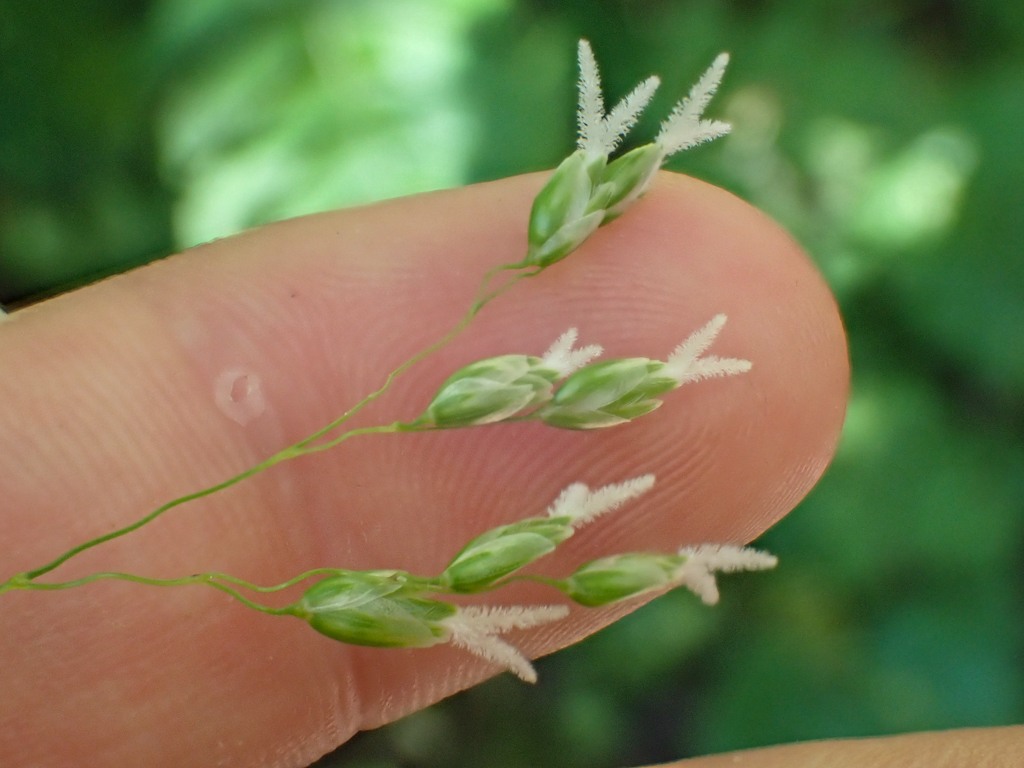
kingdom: Plantae
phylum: Tracheophyta
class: Liliopsida
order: Poales
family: Poaceae
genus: Anthoxanthum
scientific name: Anthoxanthum occidentale
